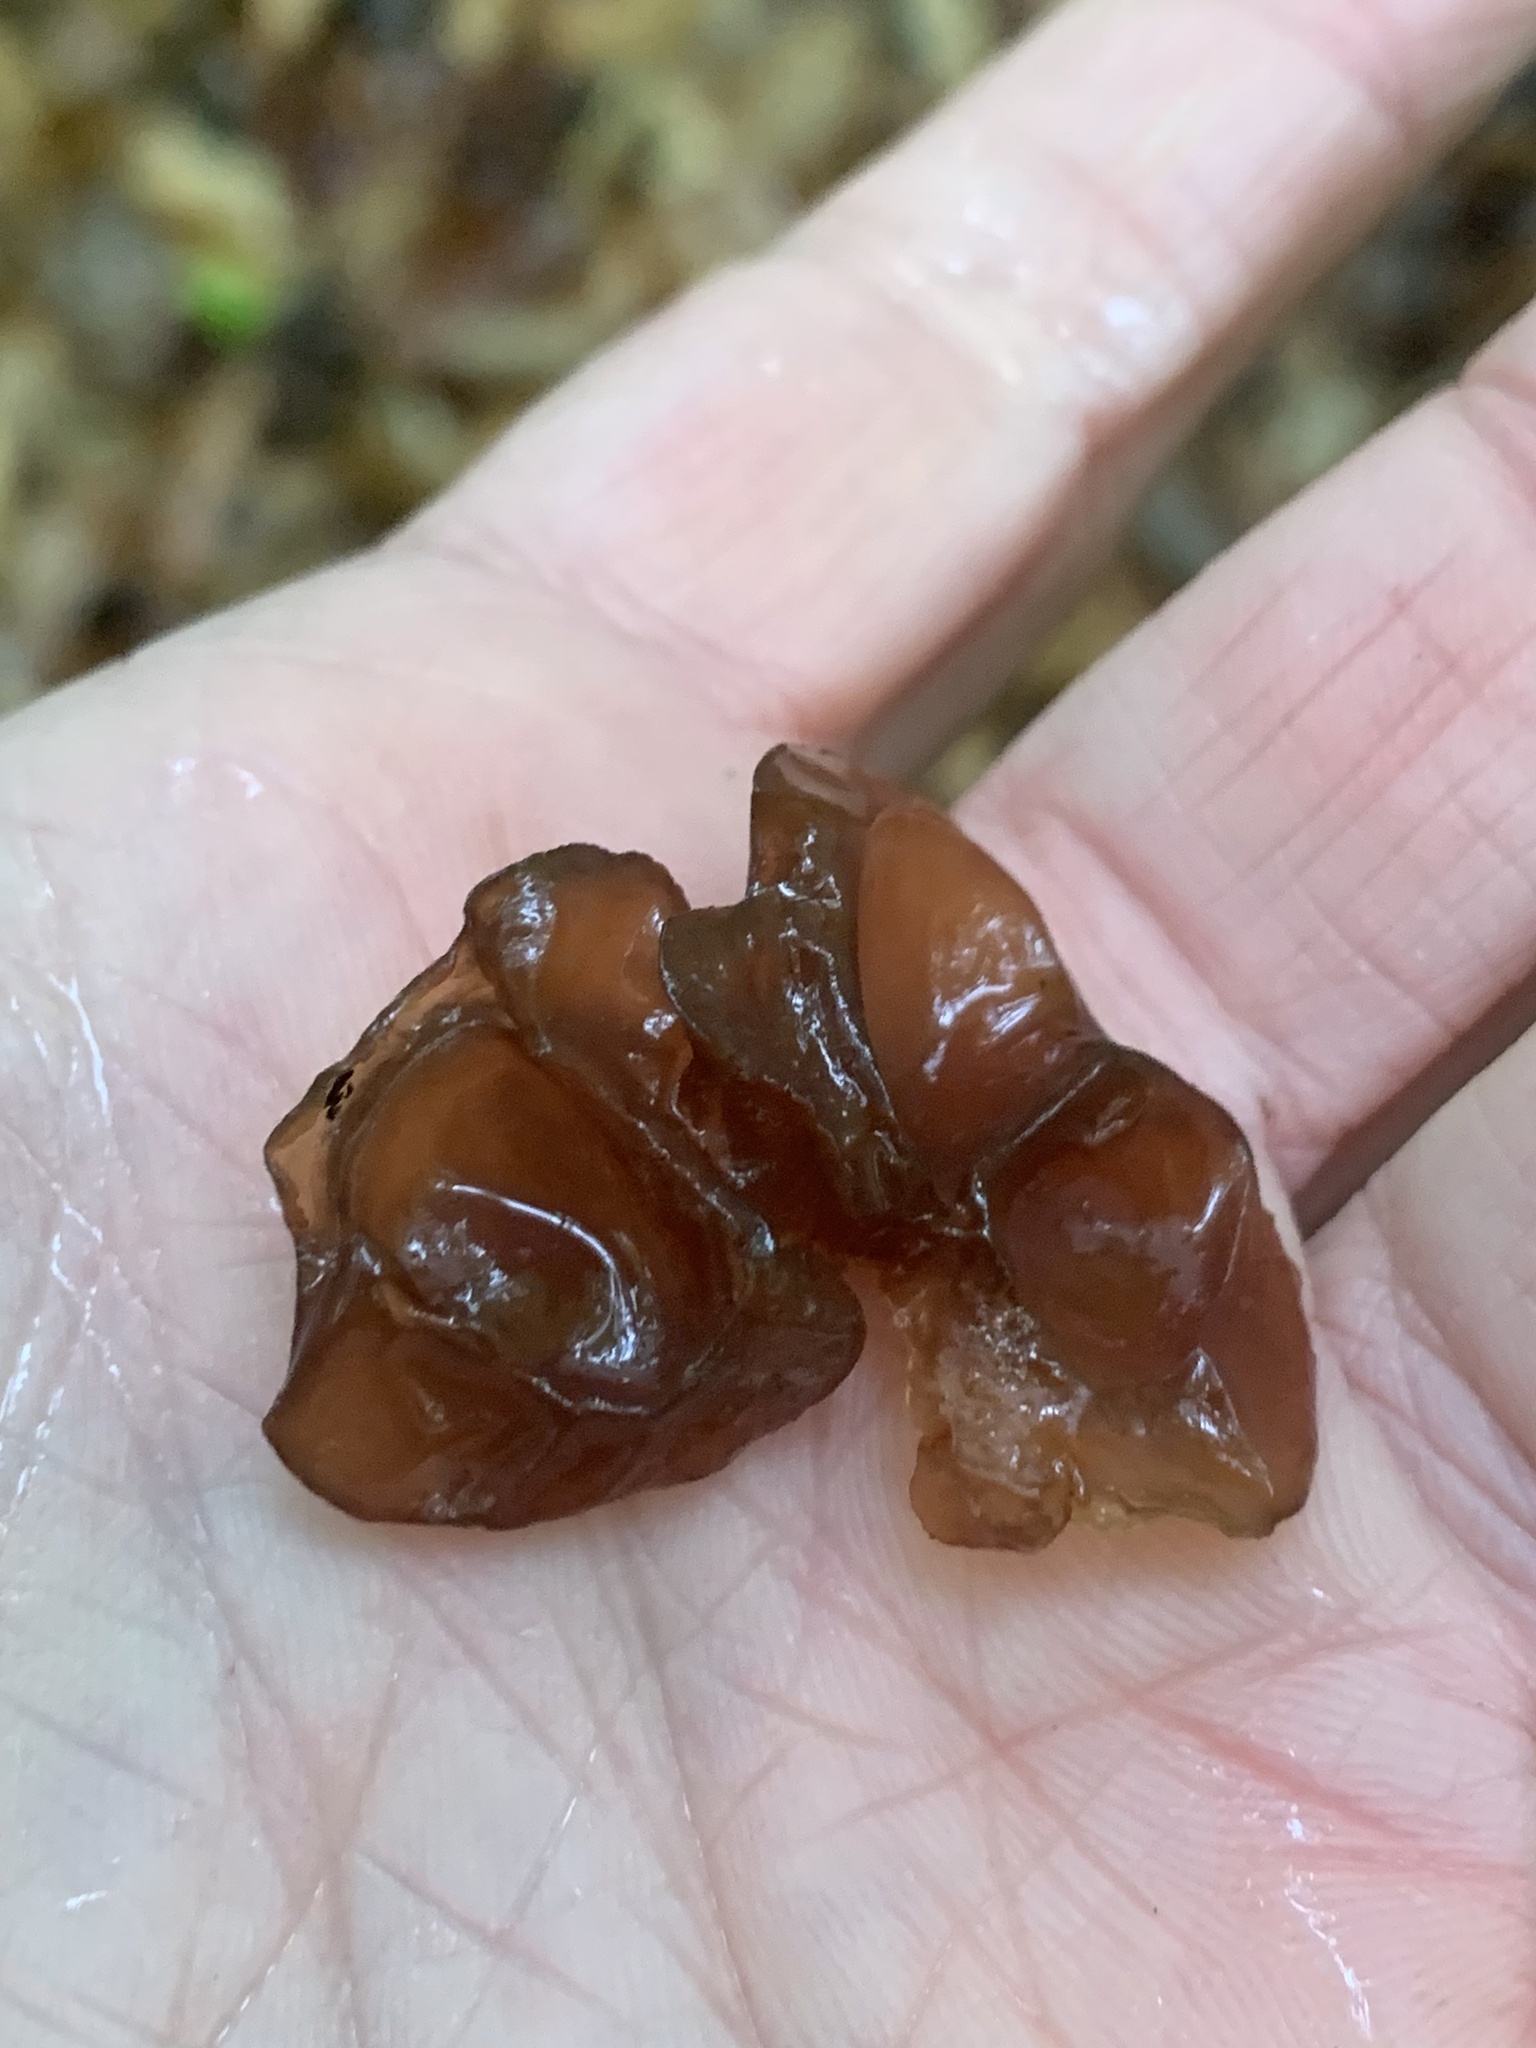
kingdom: Fungi
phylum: Basidiomycota
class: Agaricomycetes
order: Auriculariales
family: Auriculariaceae
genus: Exidia
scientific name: Exidia
